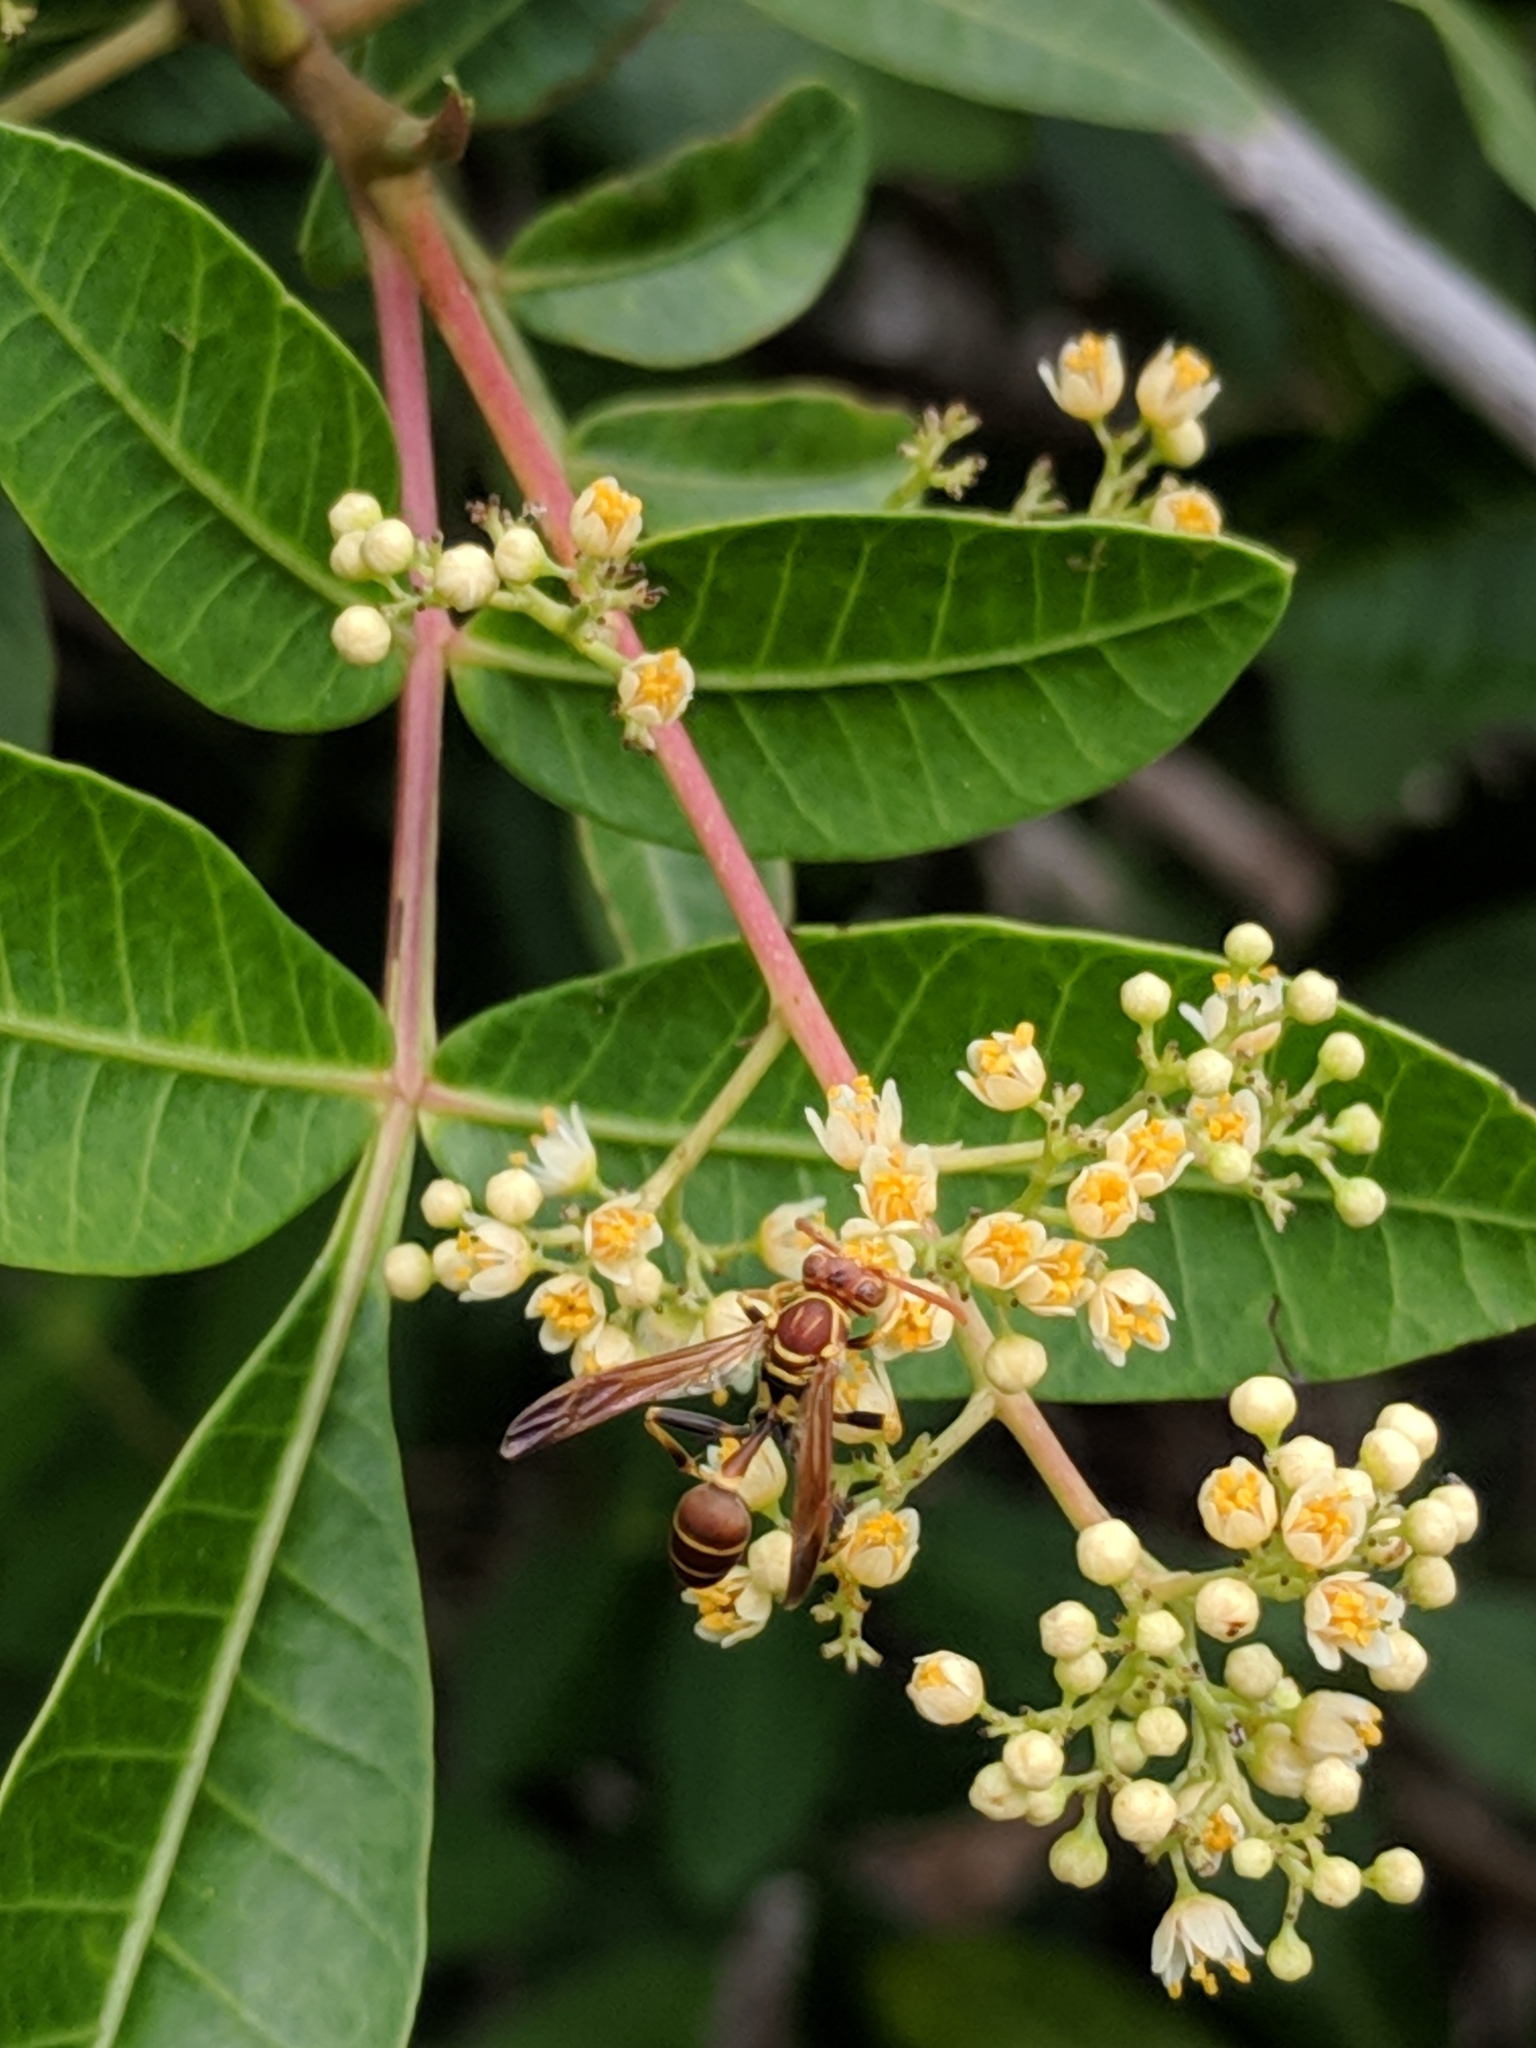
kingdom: Animalia
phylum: Arthropoda
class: Insecta
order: Hymenoptera
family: Vespidae
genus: Mischocyttarus
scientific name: Mischocyttarus mexicanus
